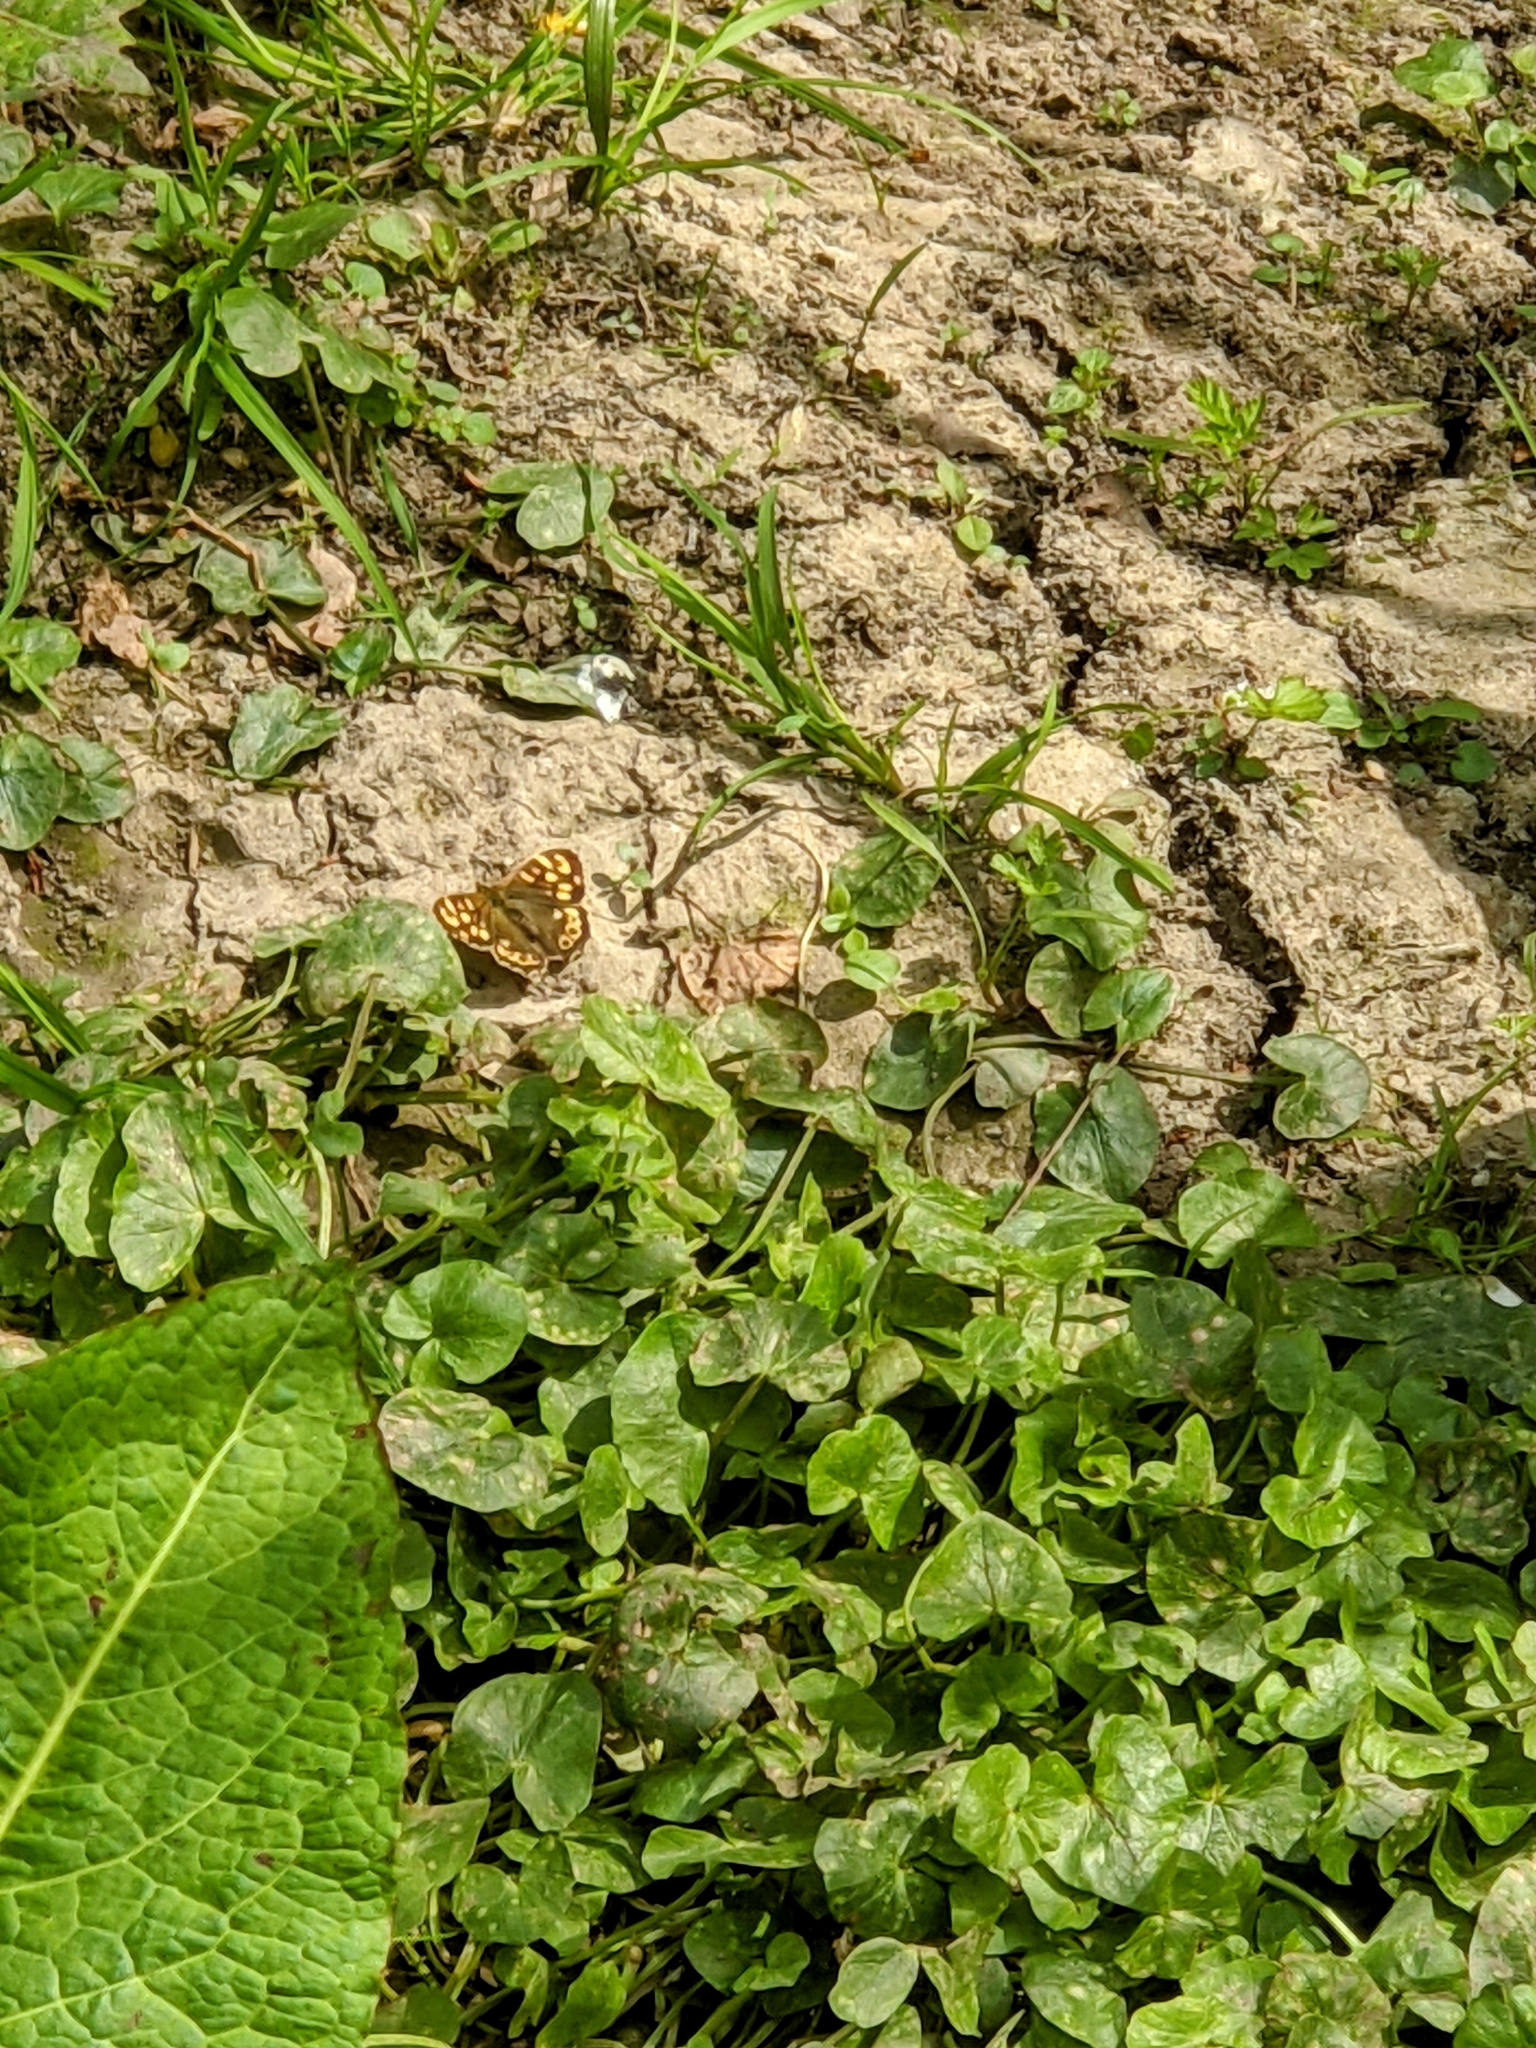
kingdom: Animalia
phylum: Arthropoda
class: Insecta
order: Lepidoptera
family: Nymphalidae
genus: Pararge
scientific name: Pararge aegeria
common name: Speckled wood
